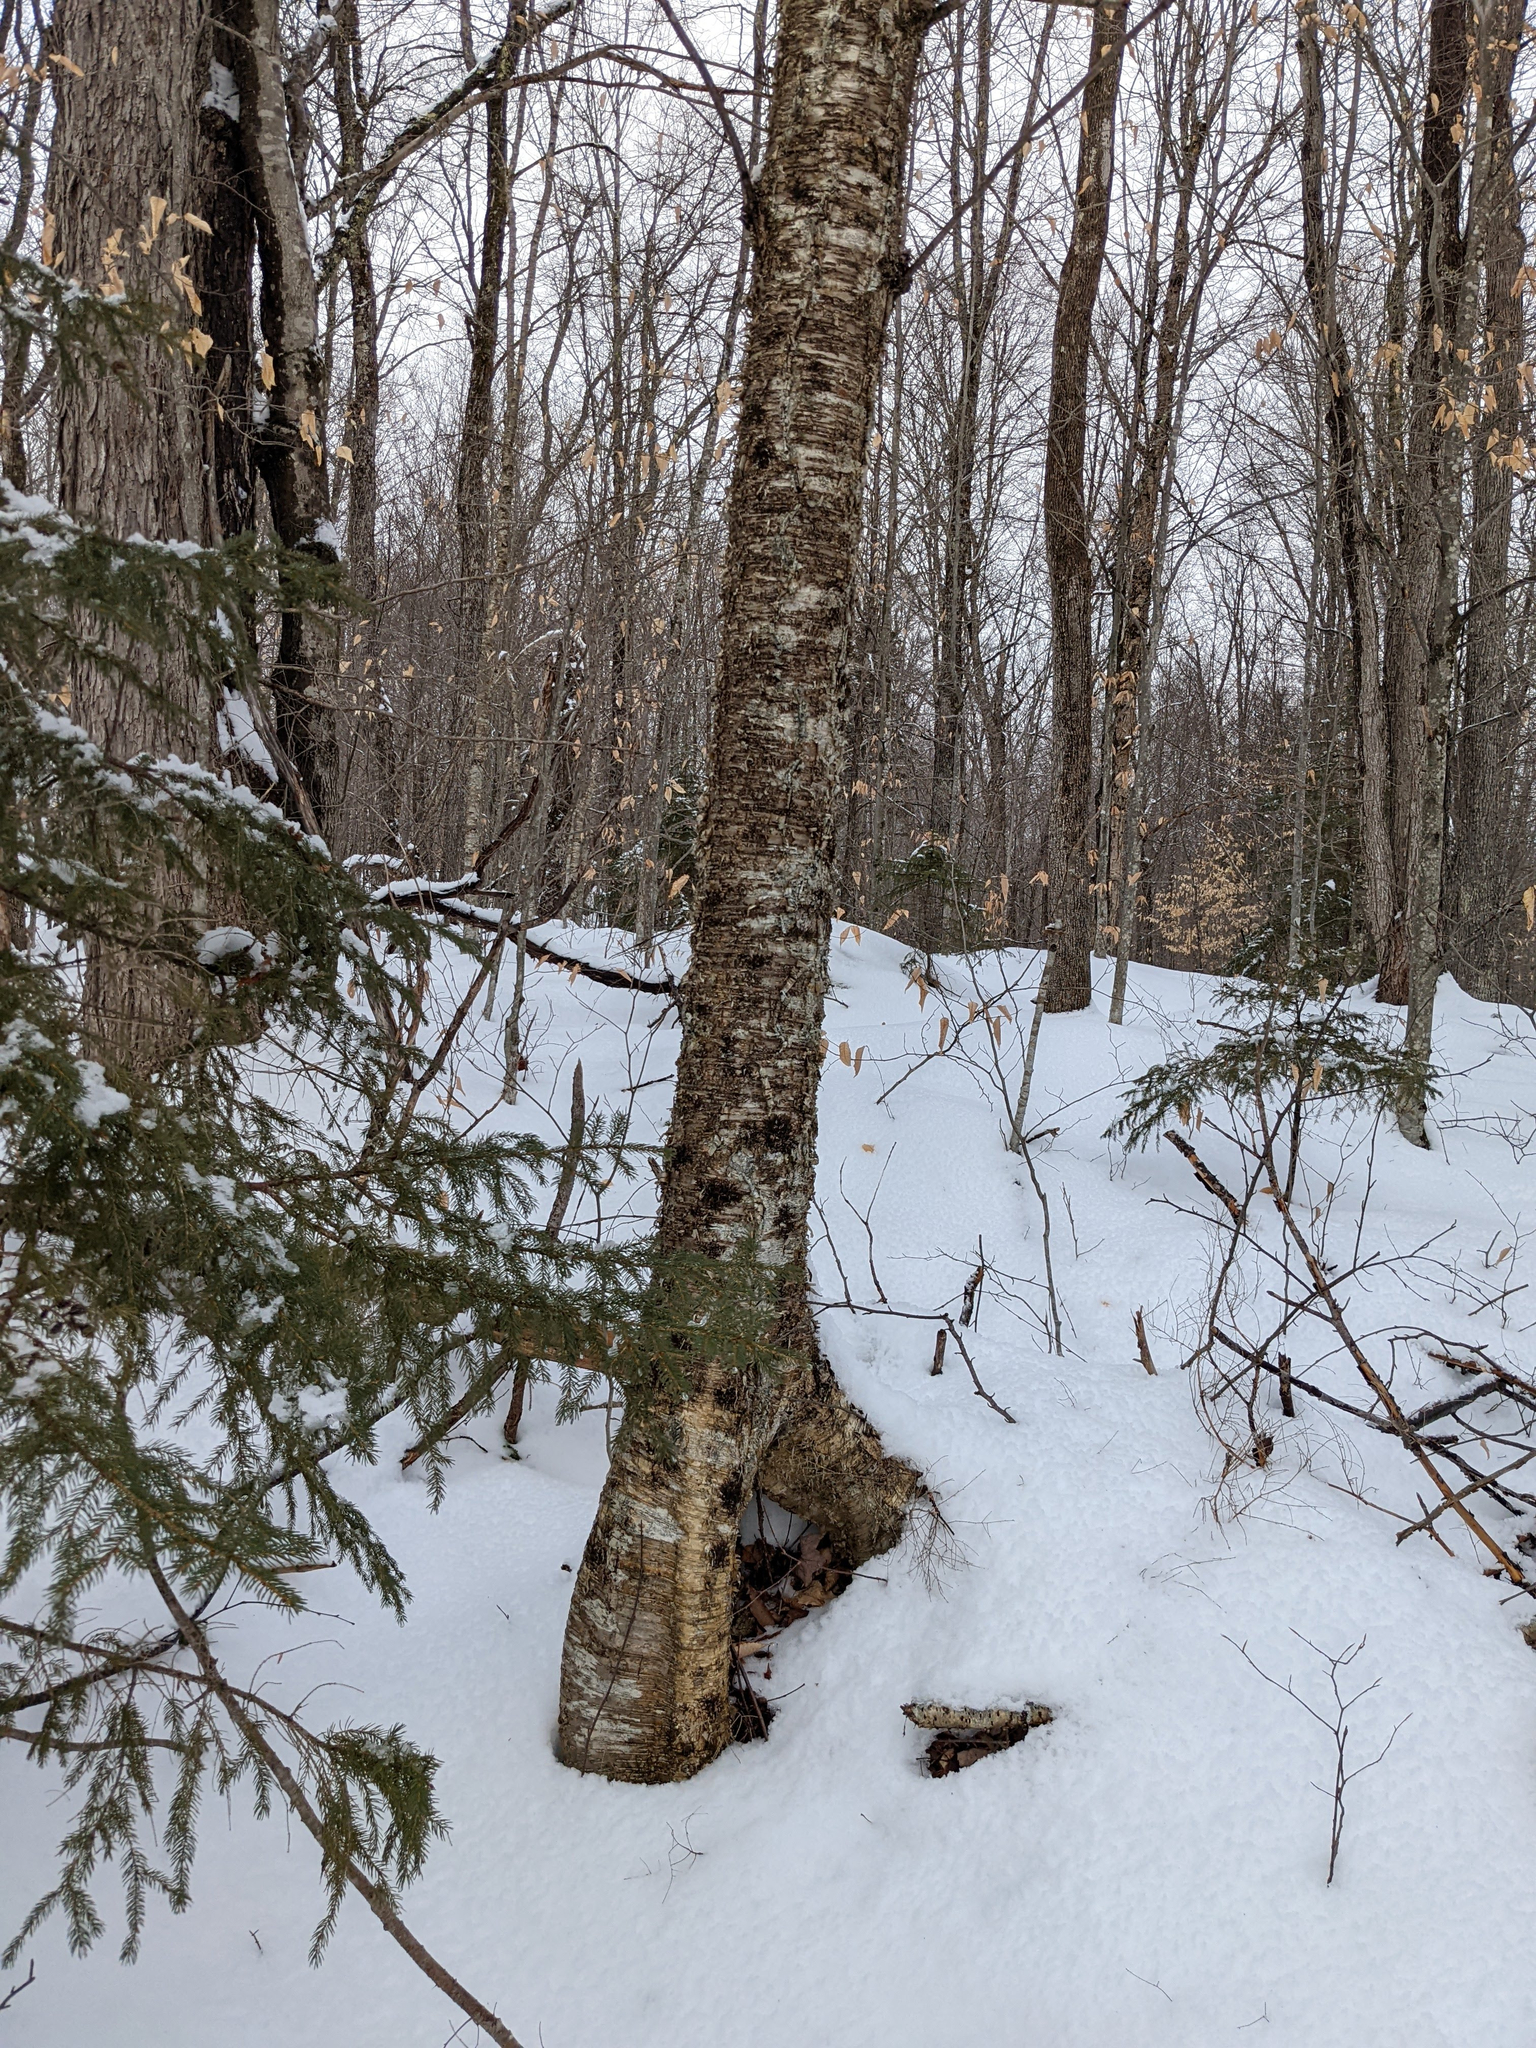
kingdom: Plantae
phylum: Tracheophyta
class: Magnoliopsida
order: Fagales
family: Betulaceae
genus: Betula
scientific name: Betula alleghaniensis
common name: Yellow birch
